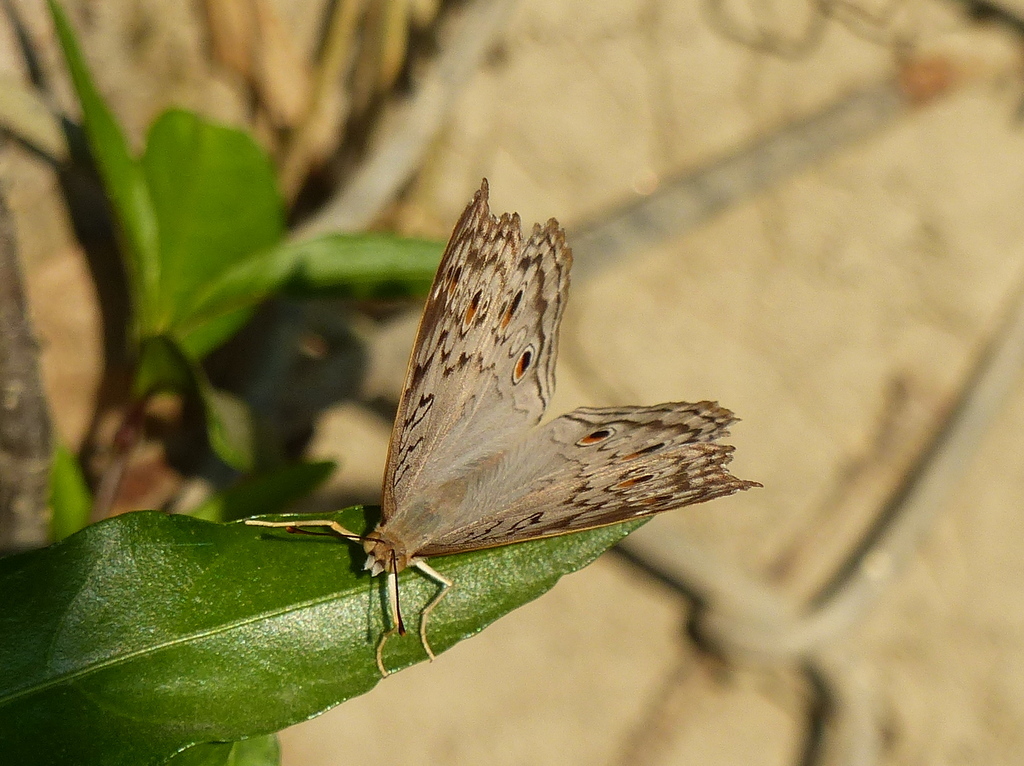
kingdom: Animalia
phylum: Arthropoda
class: Insecta
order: Lepidoptera
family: Nymphalidae
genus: Junonia
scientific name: Junonia atlites
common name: Grey pansy
